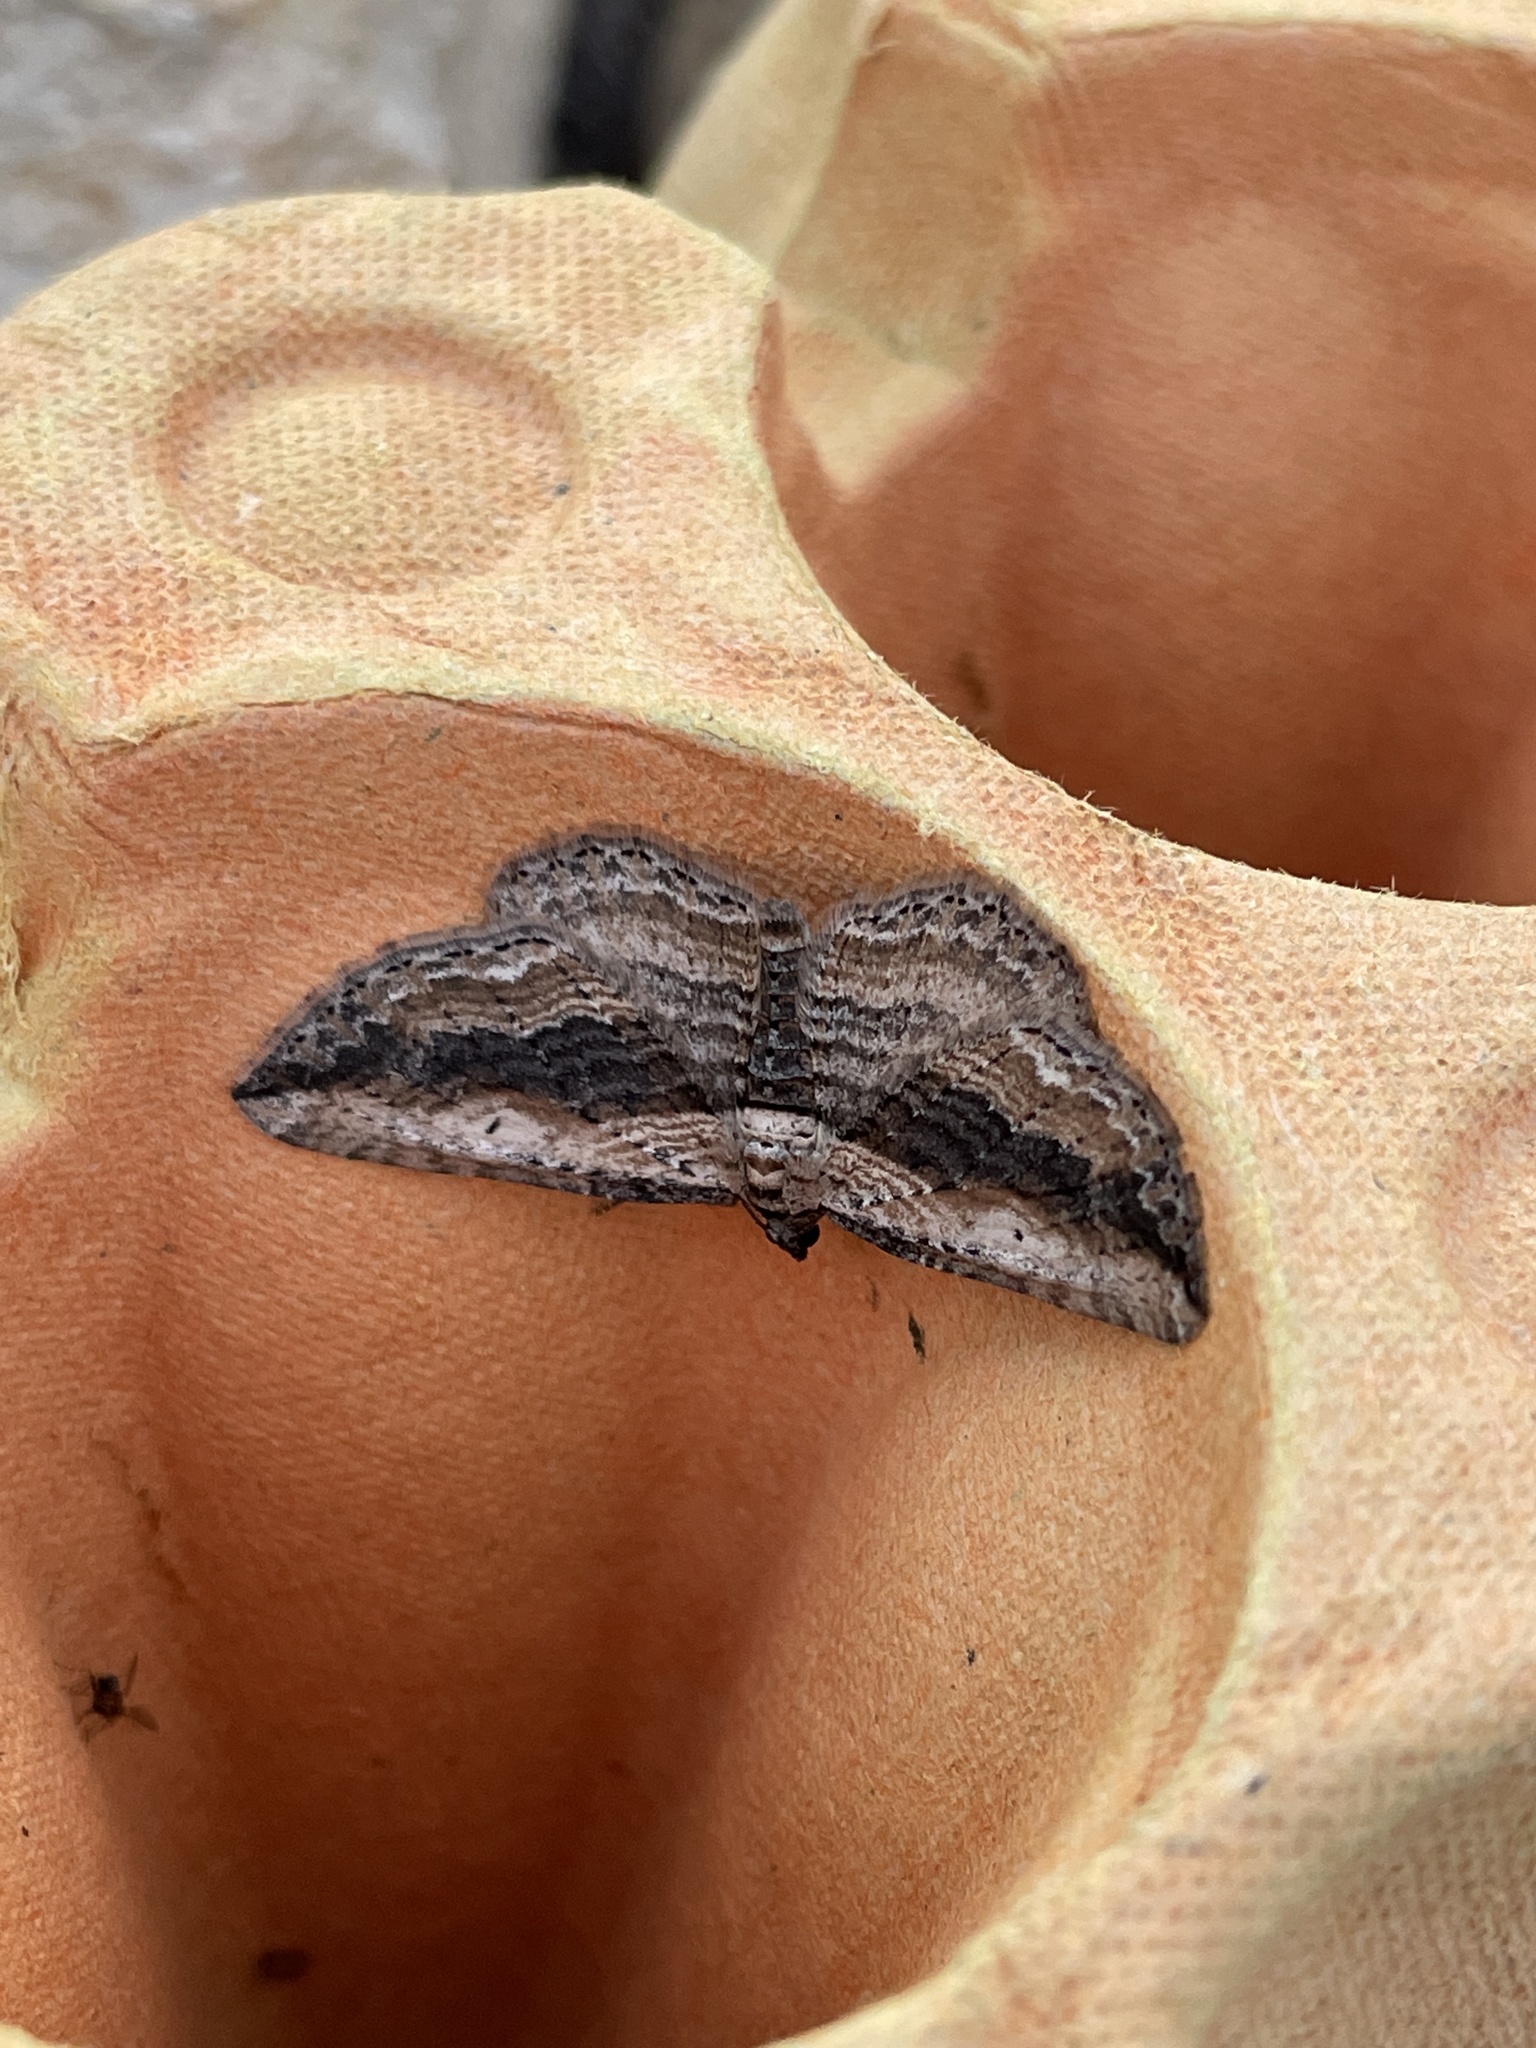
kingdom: Animalia
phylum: Arthropoda
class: Insecta
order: Lepidoptera
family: Geometridae
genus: Horisme
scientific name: Horisme vitalbata
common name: Small waved umber
